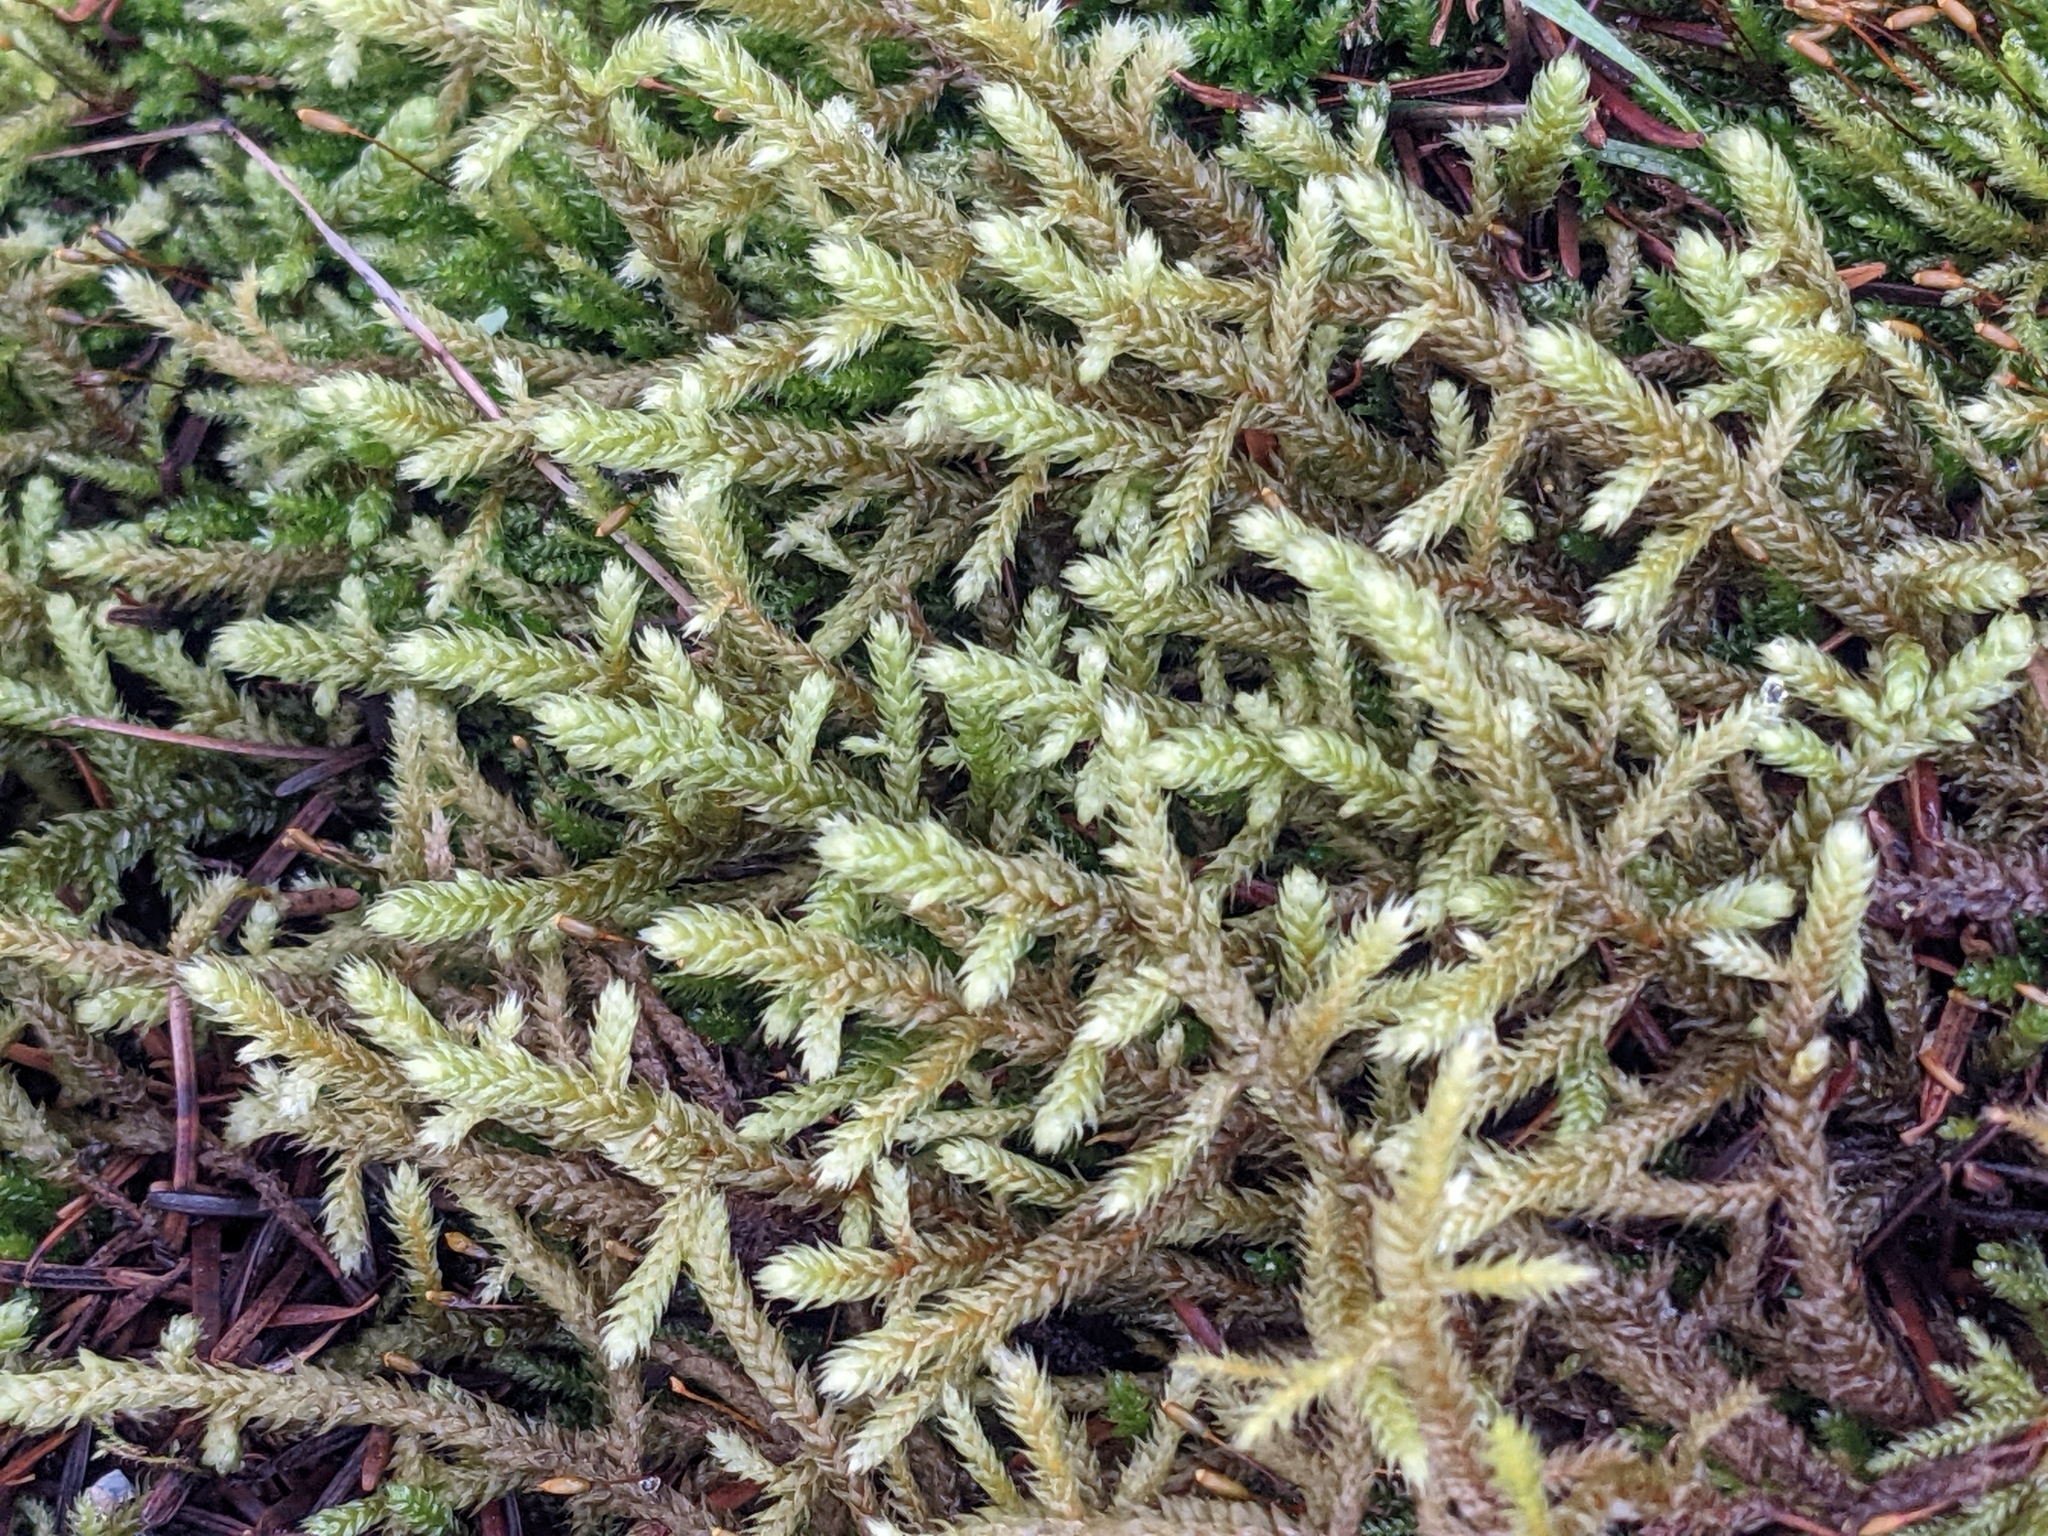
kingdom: Plantae
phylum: Bryophyta
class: Bryopsida
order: Hypnales
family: Antitrichiaceae
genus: Antitrichia
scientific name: Antitrichia curtipendula
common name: Pendulous wing-moss
